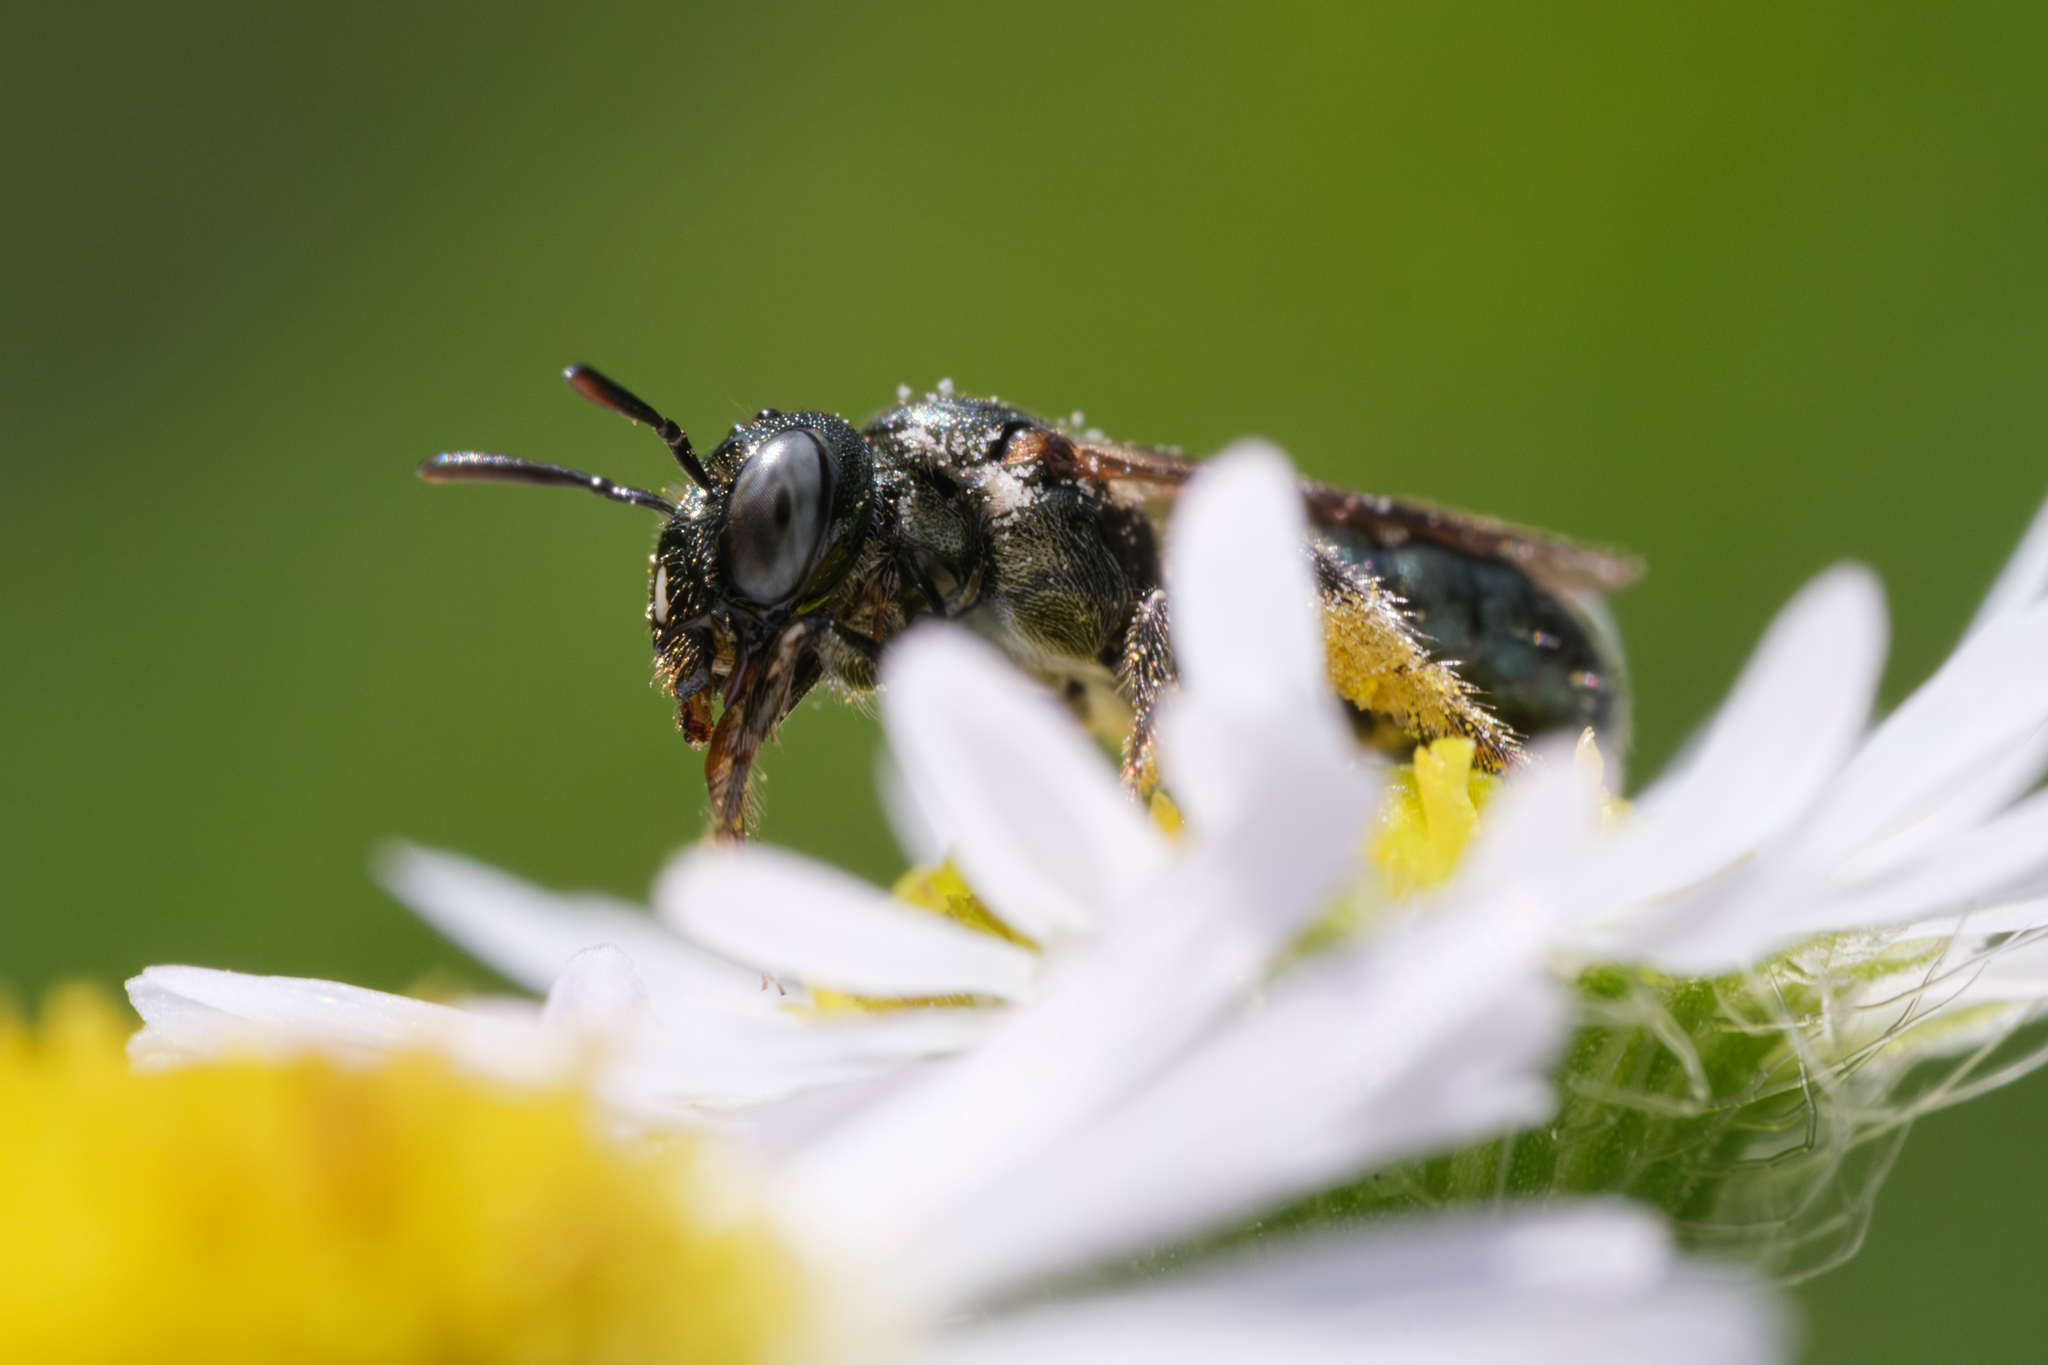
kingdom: Animalia
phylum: Arthropoda
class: Insecta
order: Hymenoptera
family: Apidae
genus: Ceratina
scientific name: Ceratina strenua
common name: Nimble carpenter bee
